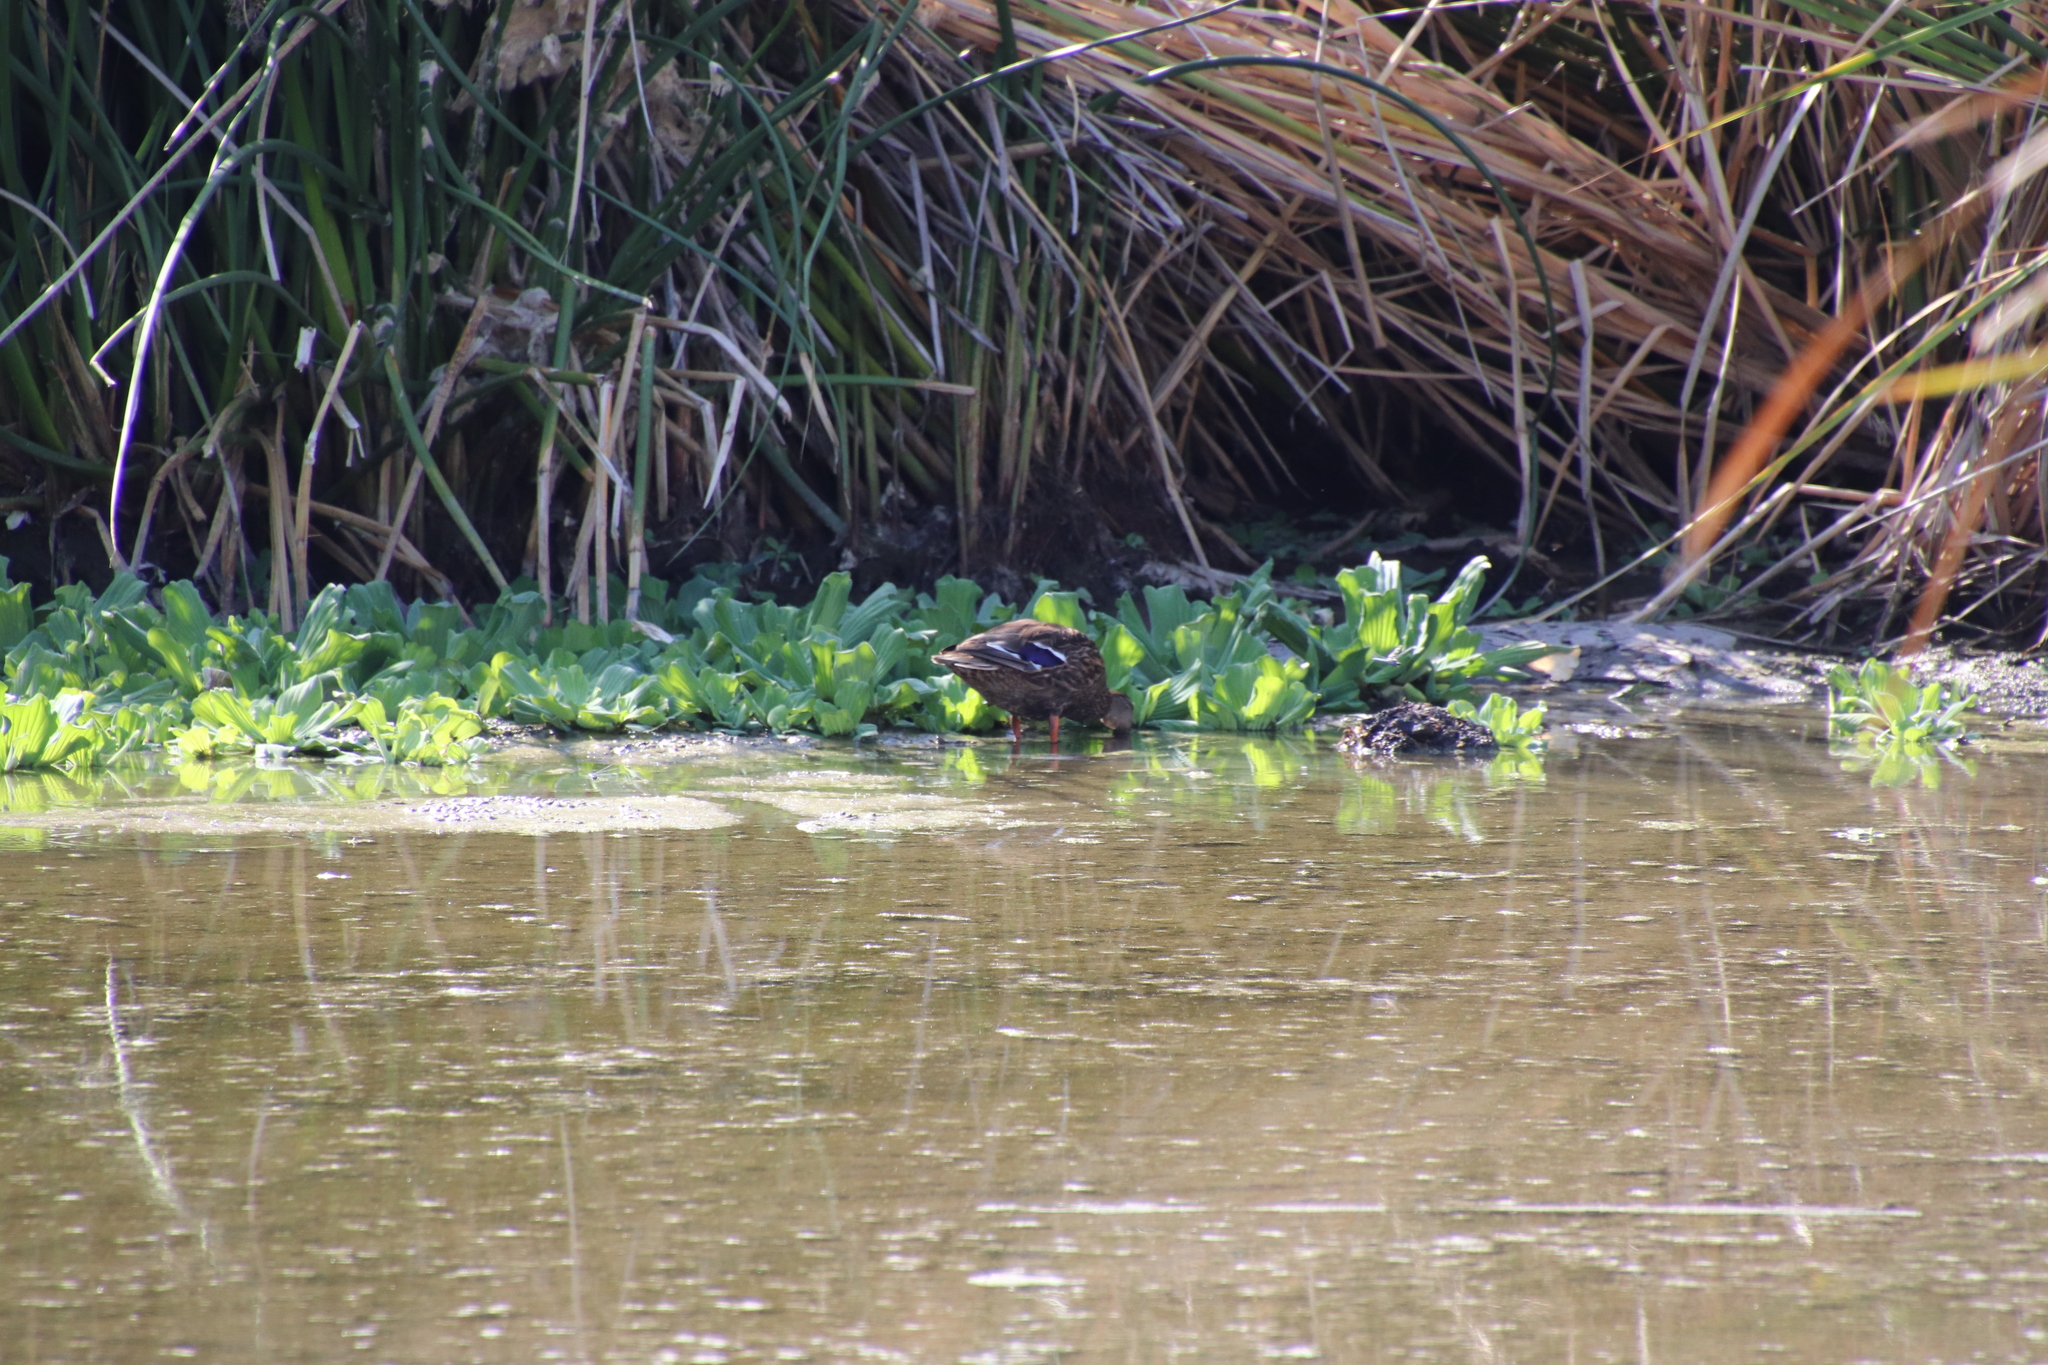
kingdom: Animalia
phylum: Chordata
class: Aves
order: Anseriformes
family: Anatidae
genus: Anas
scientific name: Anas diazi
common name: Mexican duck
